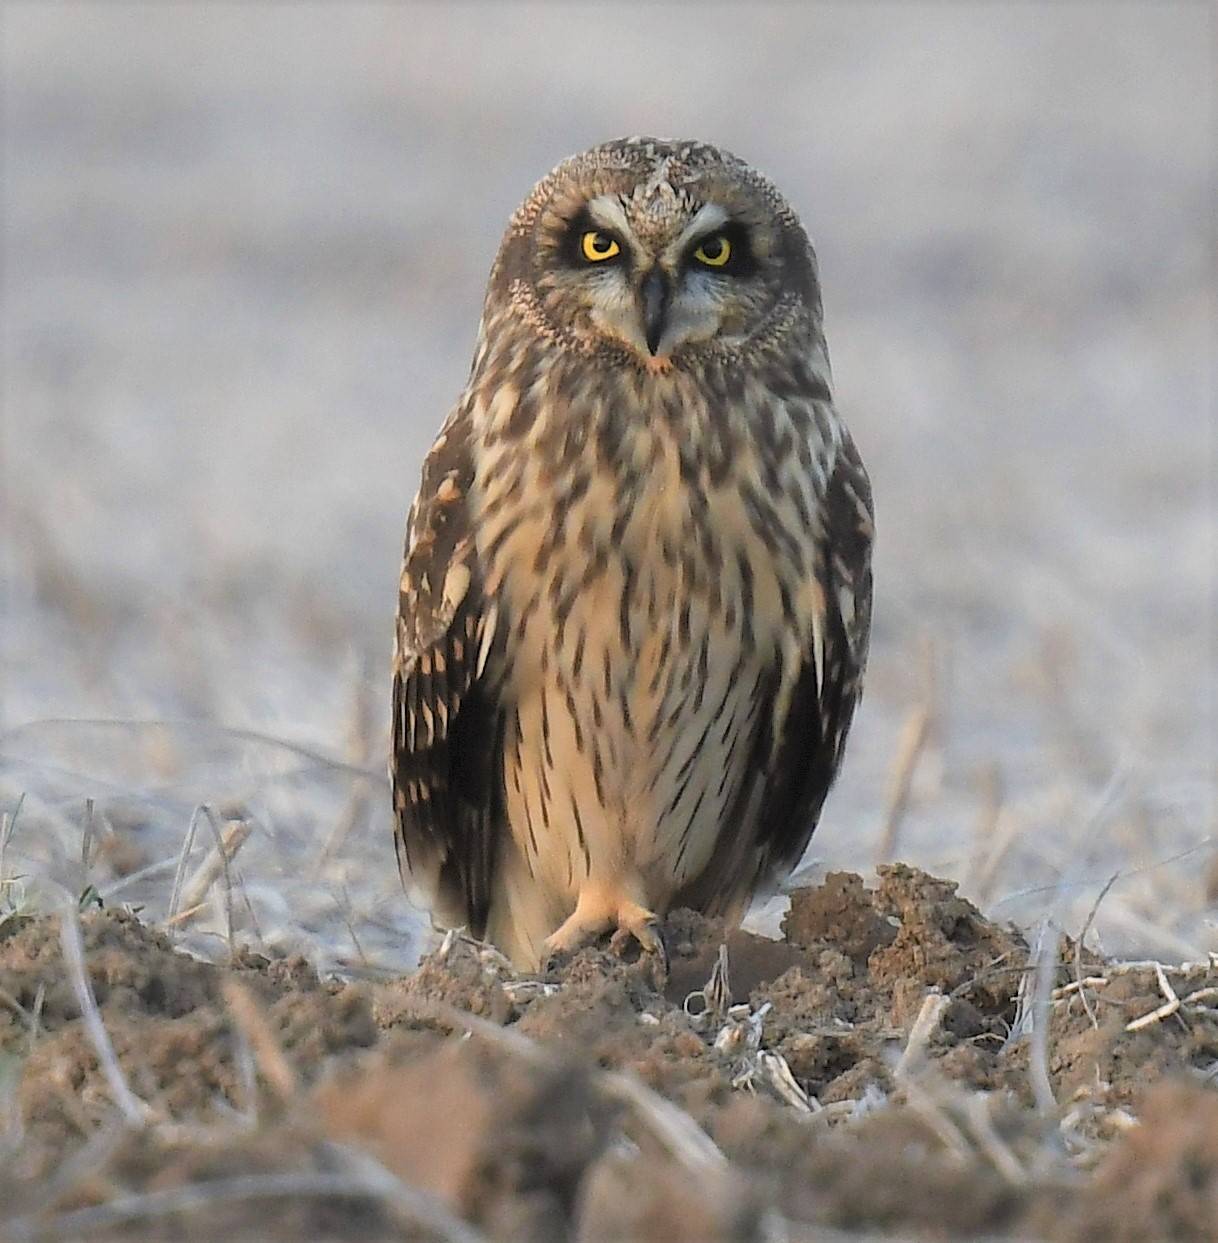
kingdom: Animalia
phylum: Chordata
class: Aves
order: Strigiformes
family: Strigidae
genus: Asio
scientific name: Asio flammeus
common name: Short-eared owl
